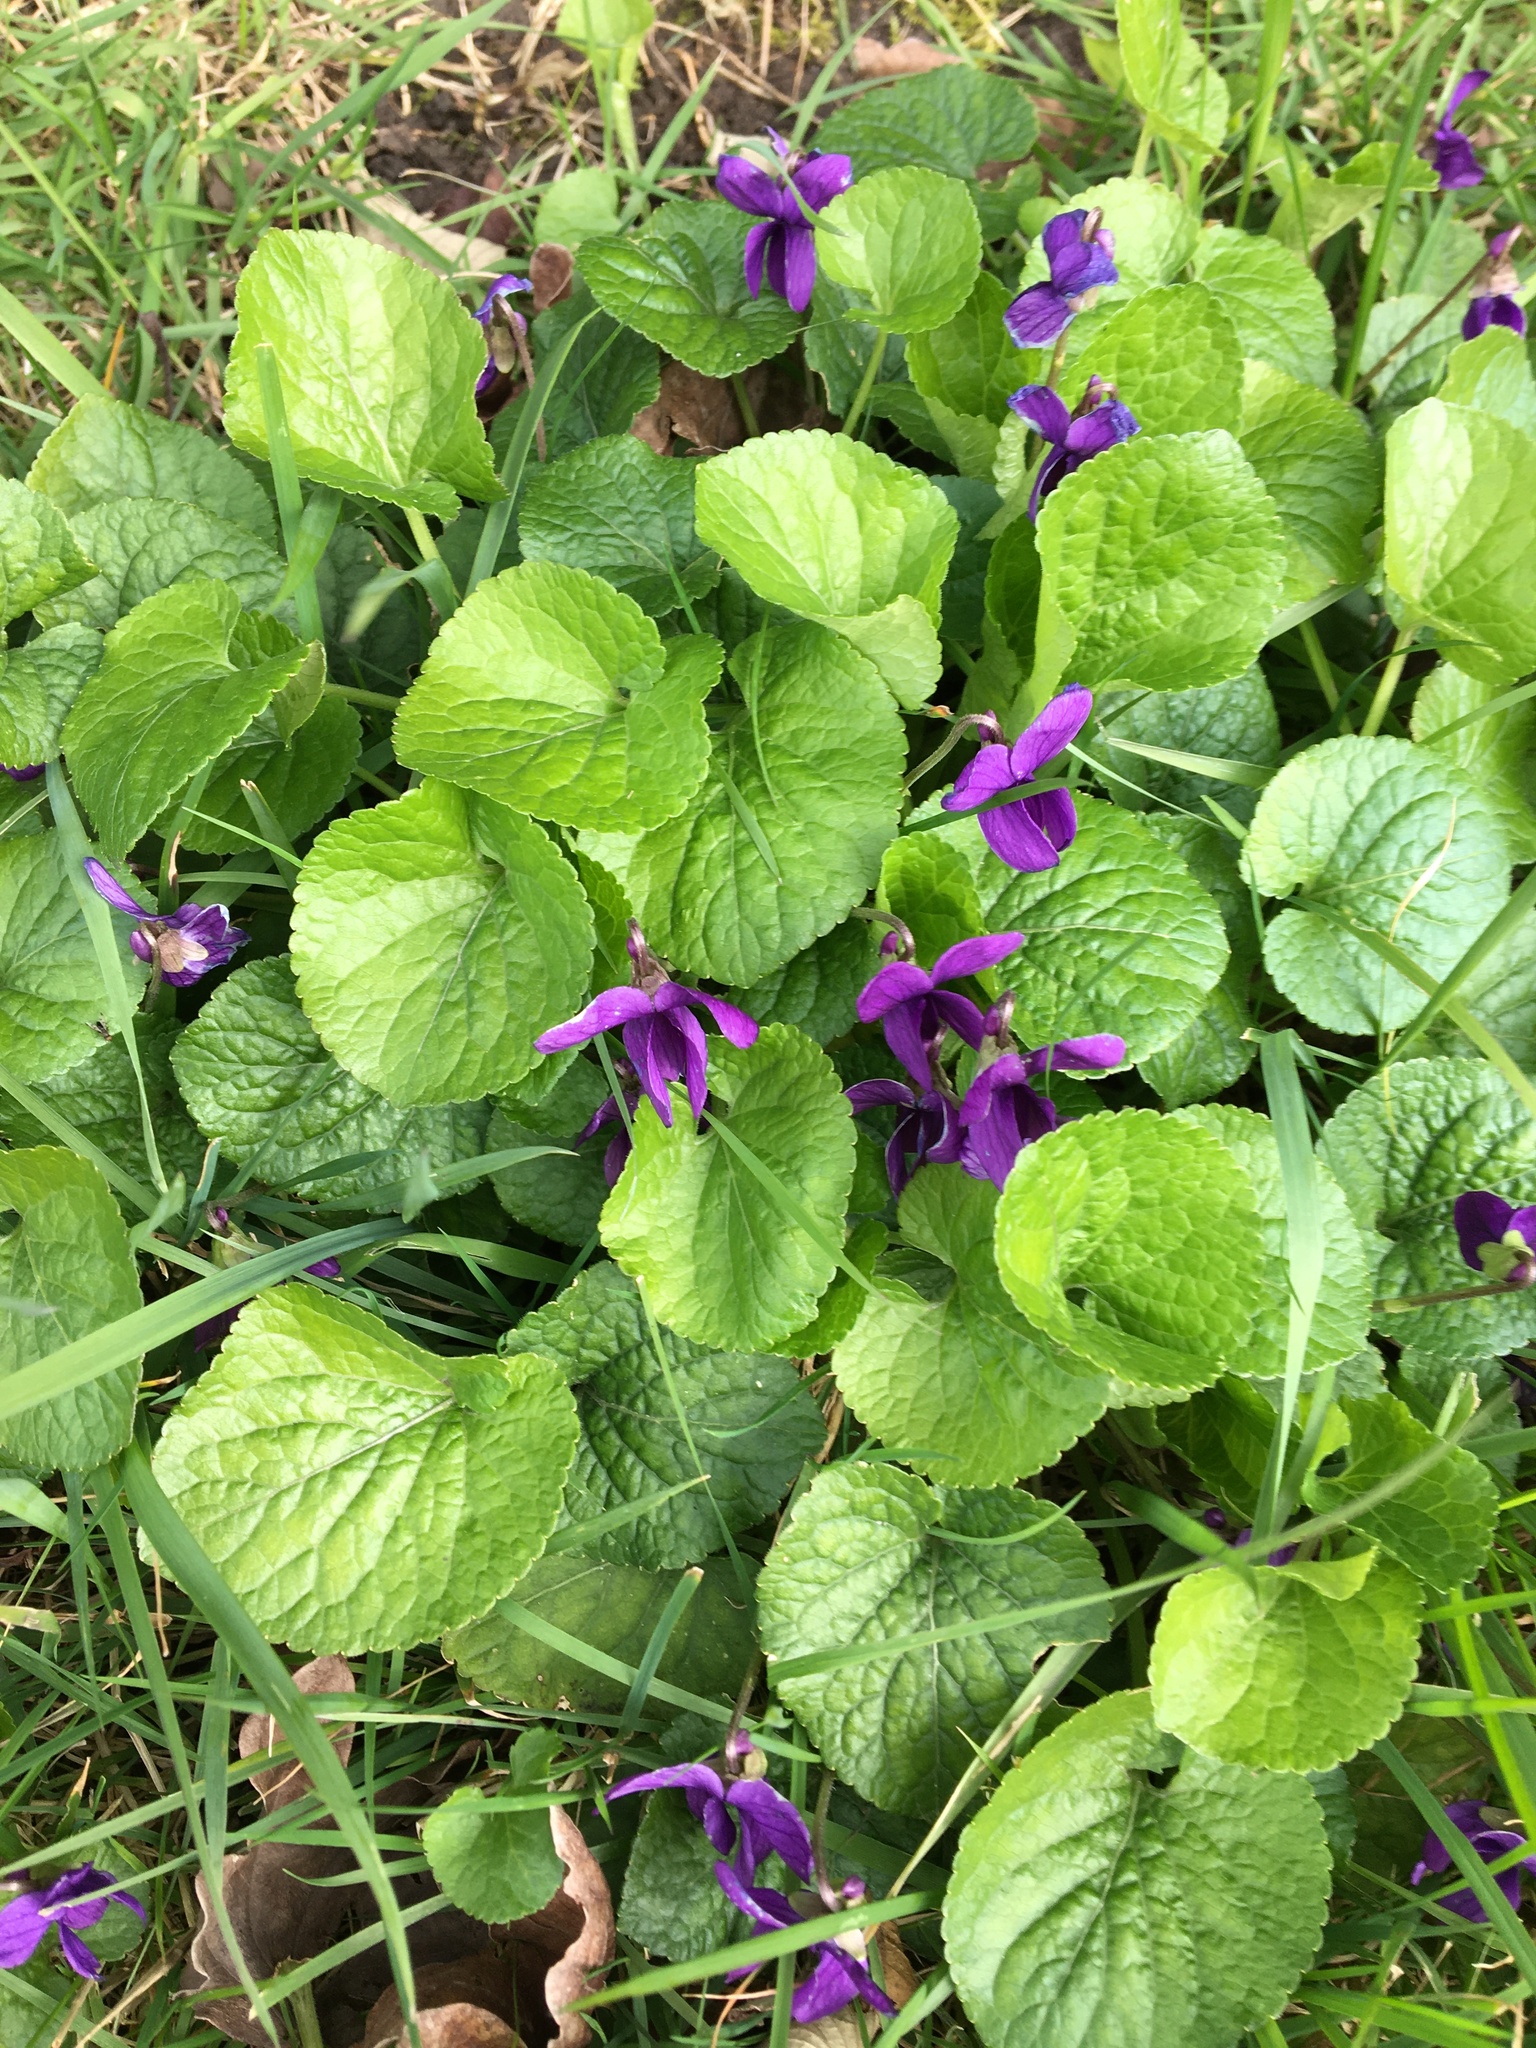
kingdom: Plantae
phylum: Tracheophyta
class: Magnoliopsida
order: Malpighiales
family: Violaceae
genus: Viola
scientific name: Viola odorata
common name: Sweet violet
